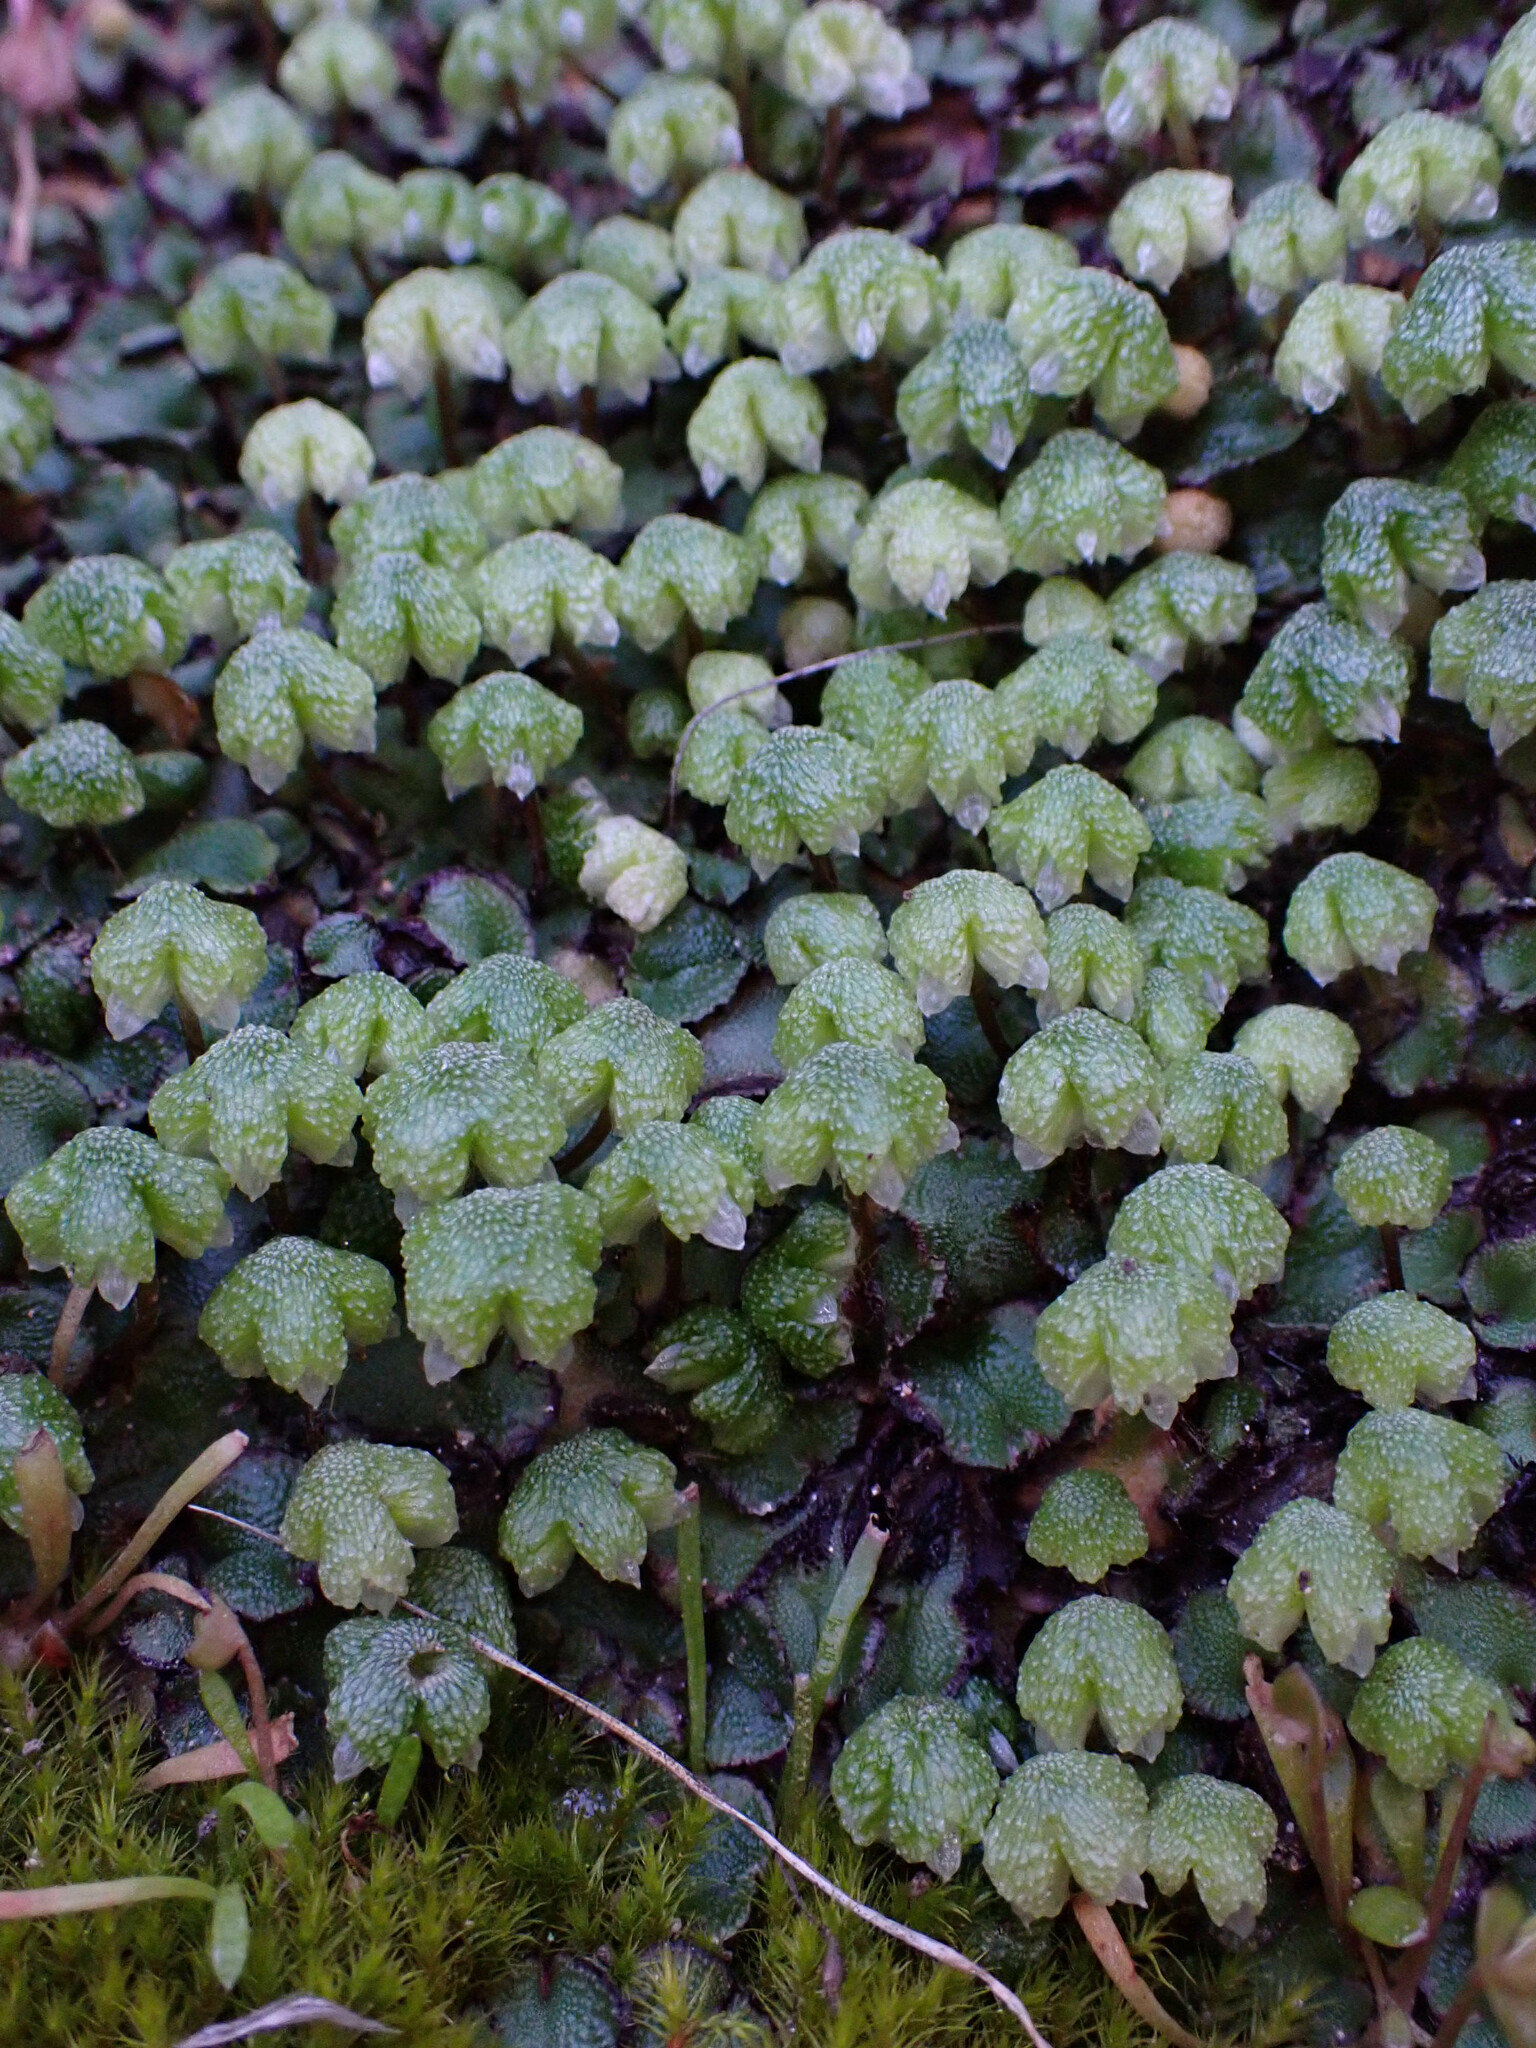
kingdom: Plantae
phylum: Marchantiophyta
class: Marchantiopsida
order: Marchantiales
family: Aytoniaceae
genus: Asterella
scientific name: Asterella californica
